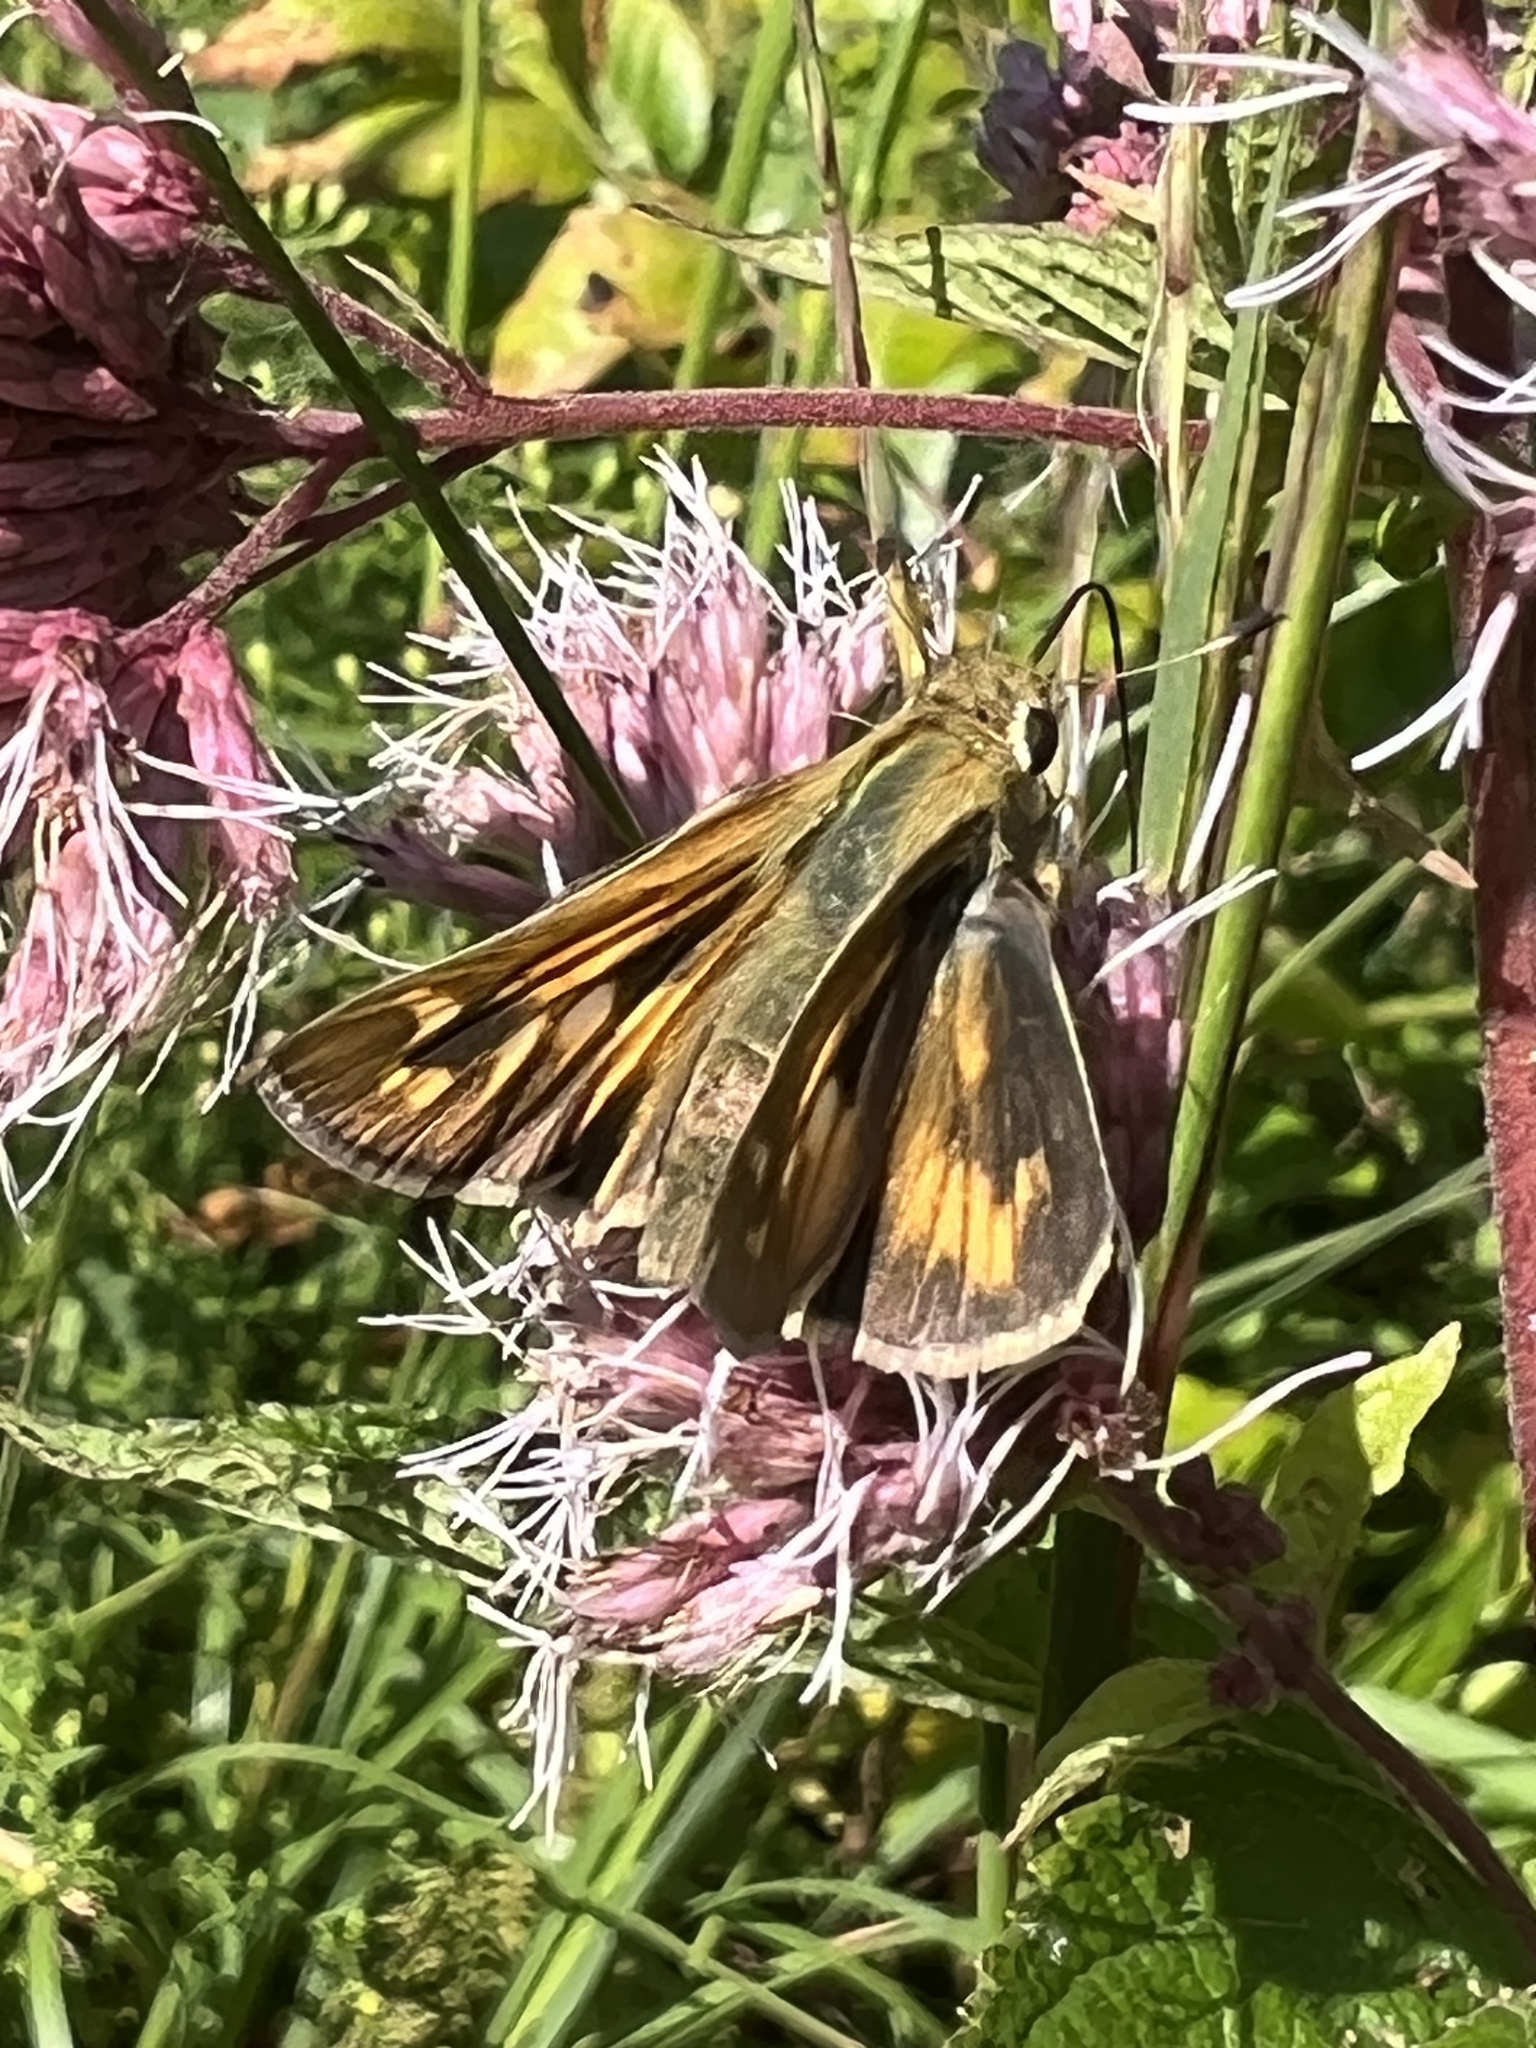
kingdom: Animalia
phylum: Arthropoda
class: Insecta
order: Lepidoptera
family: Hesperiidae
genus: Atalopedes
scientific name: Atalopedes
